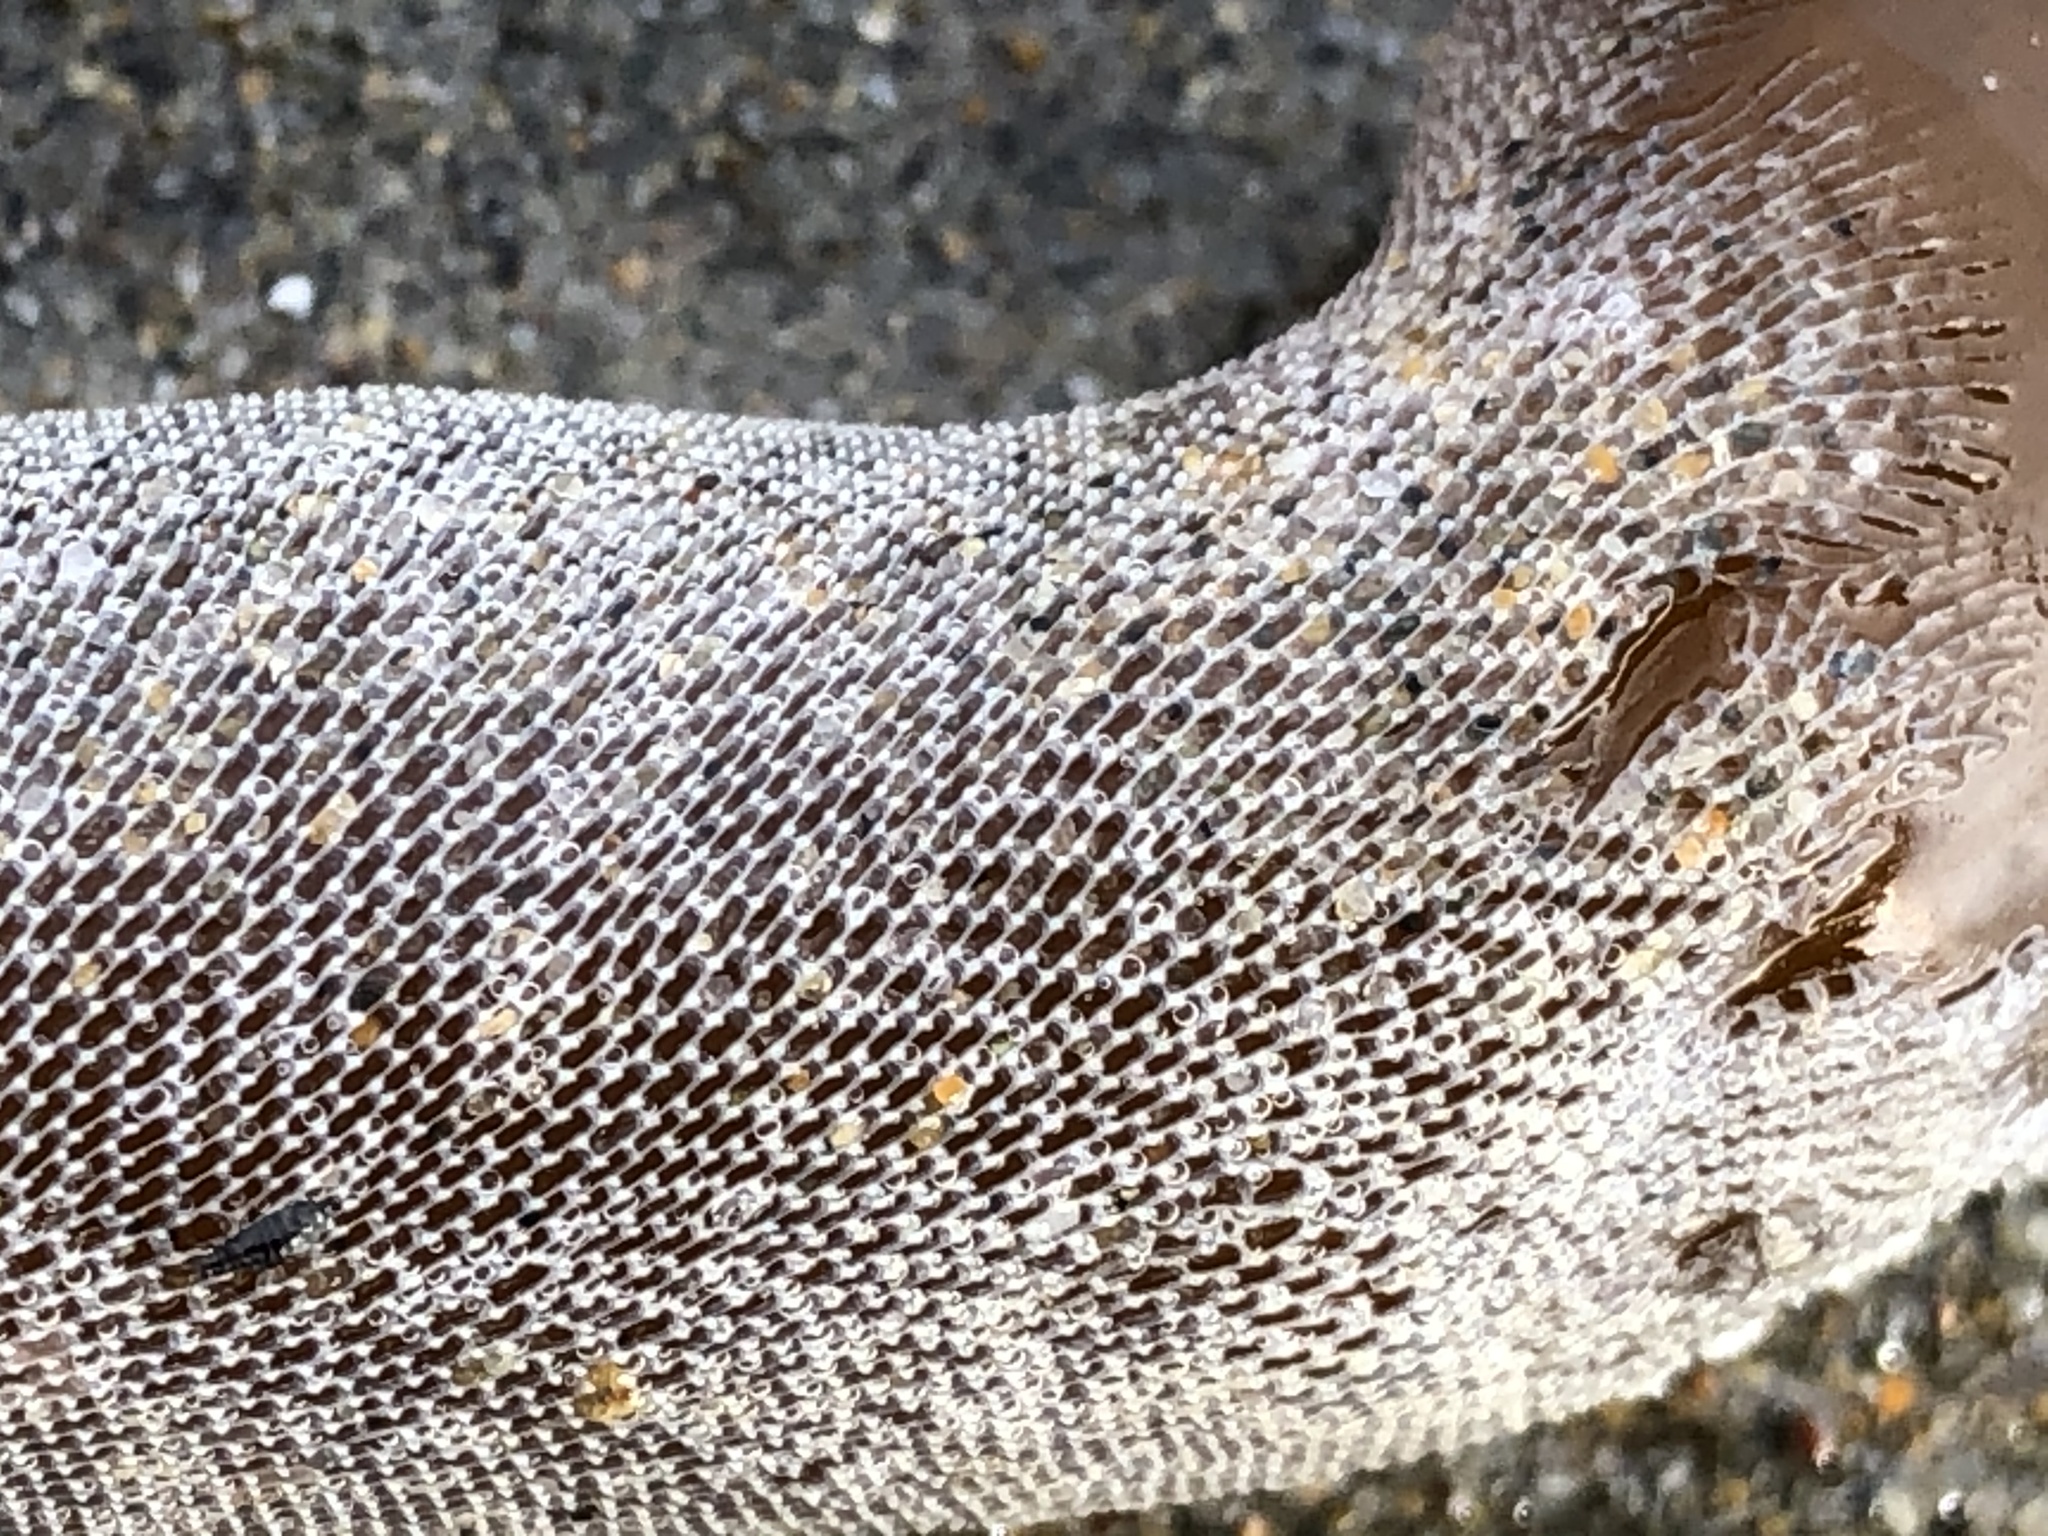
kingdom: Animalia
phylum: Bryozoa
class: Gymnolaemata
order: Cheilostomatida
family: Membraniporidae
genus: Membranipora
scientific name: Membranipora membranacea
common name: Sea mat
